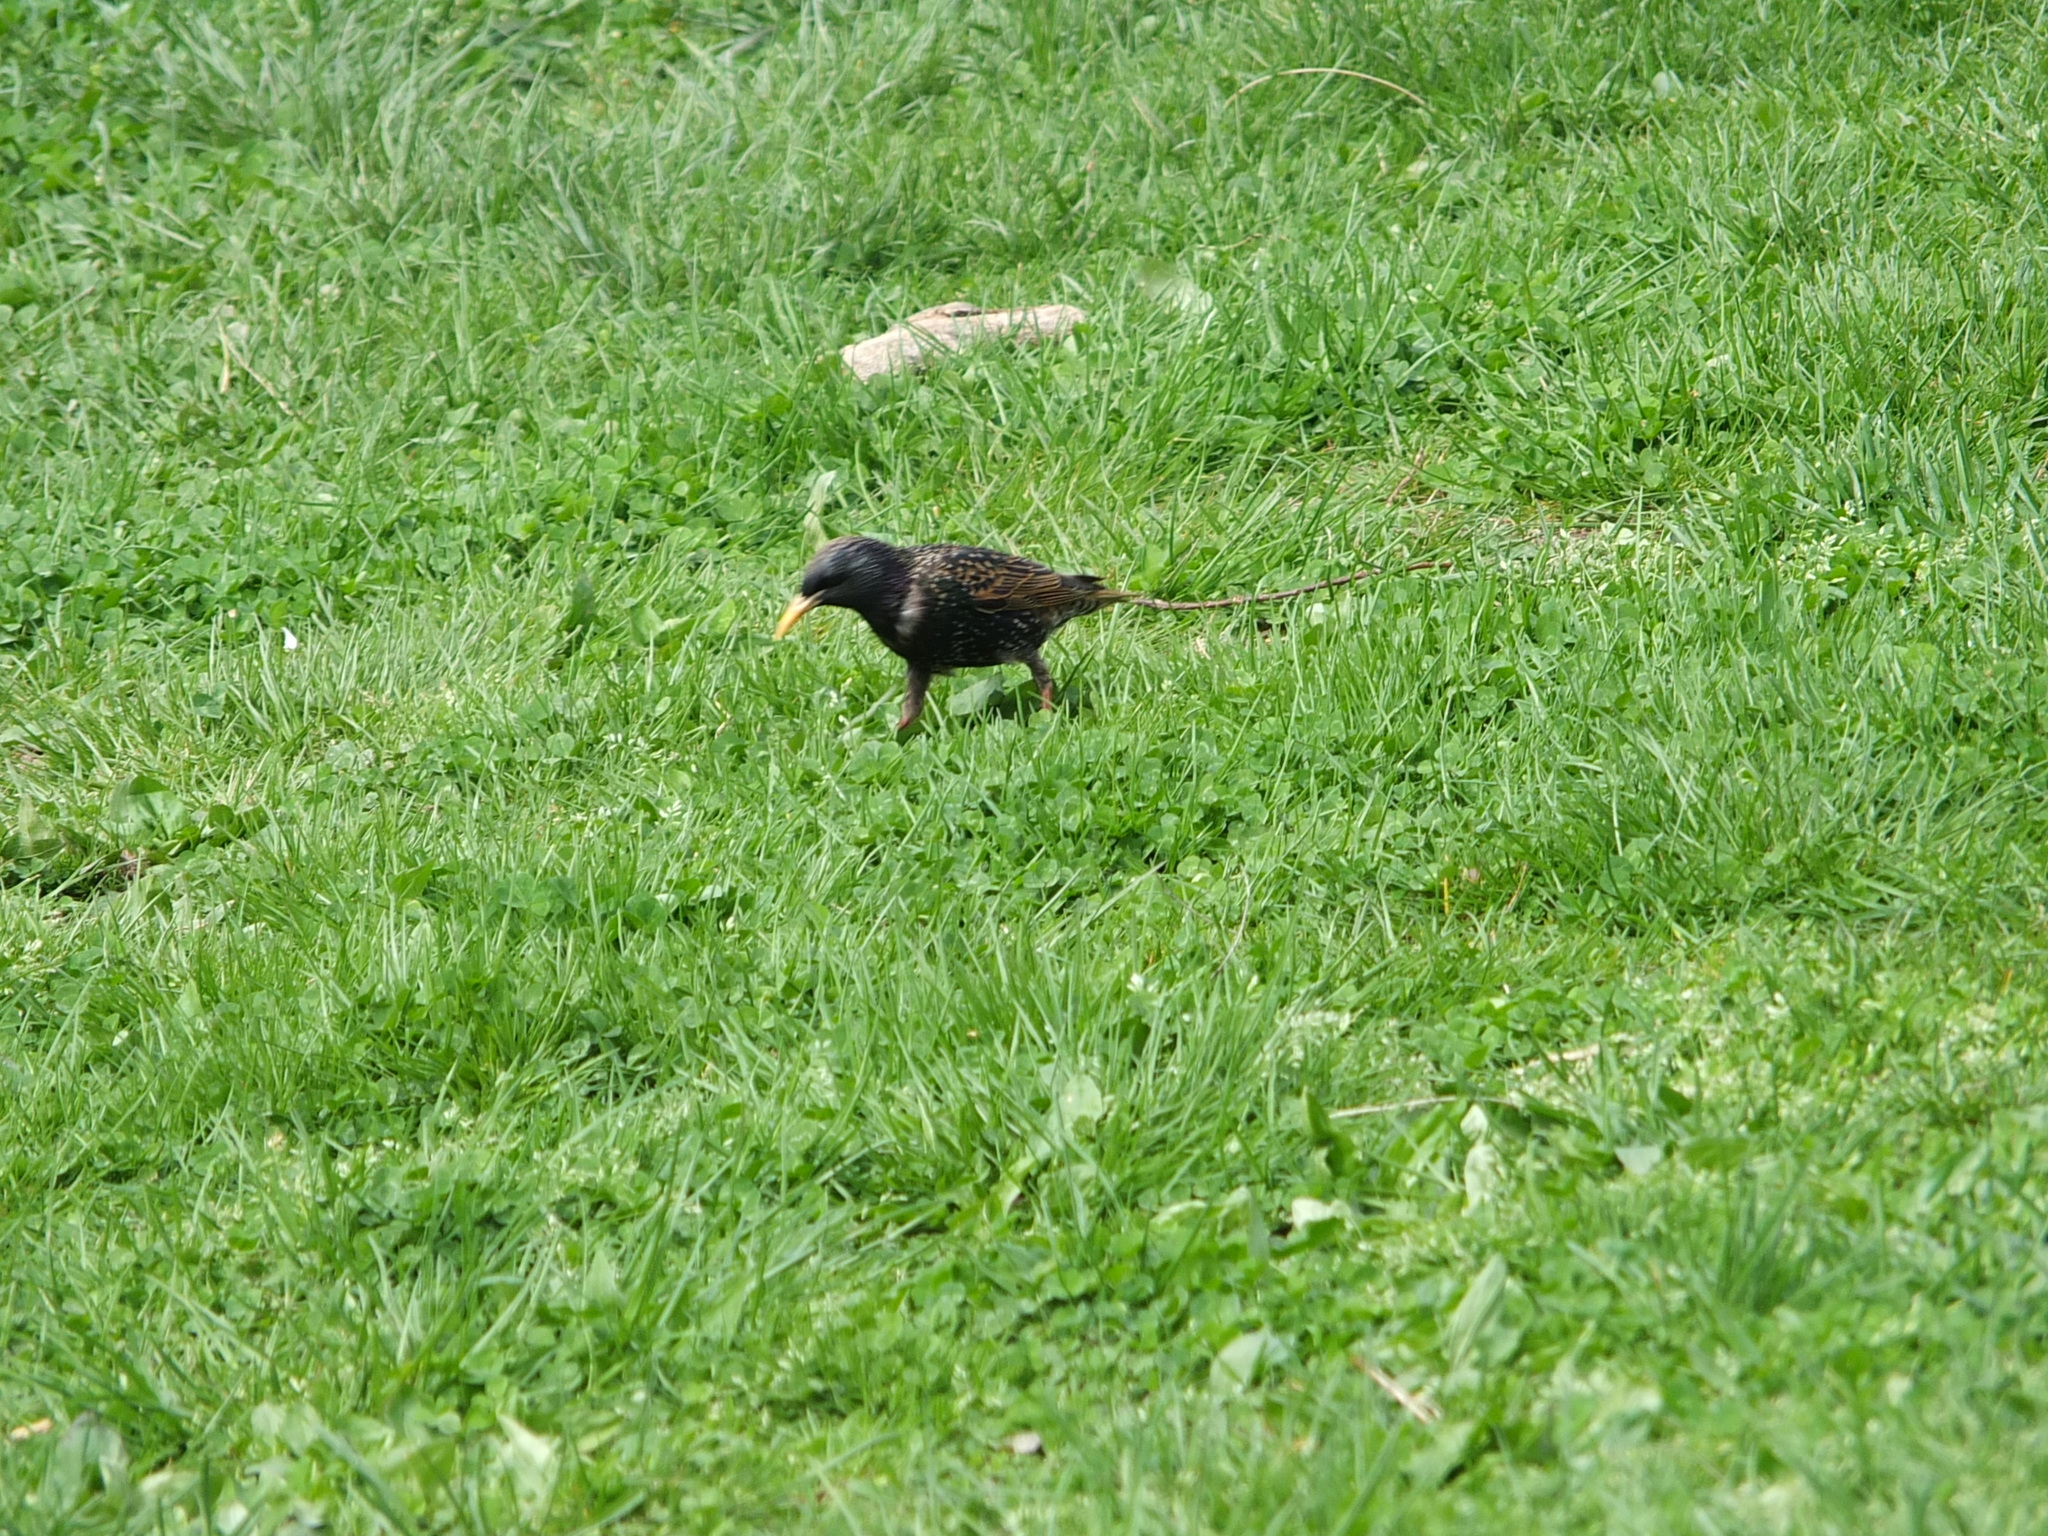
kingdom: Animalia
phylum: Chordata
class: Aves
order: Passeriformes
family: Sturnidae
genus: Sturnus
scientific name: Sturnus vulgaris
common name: Common starling
